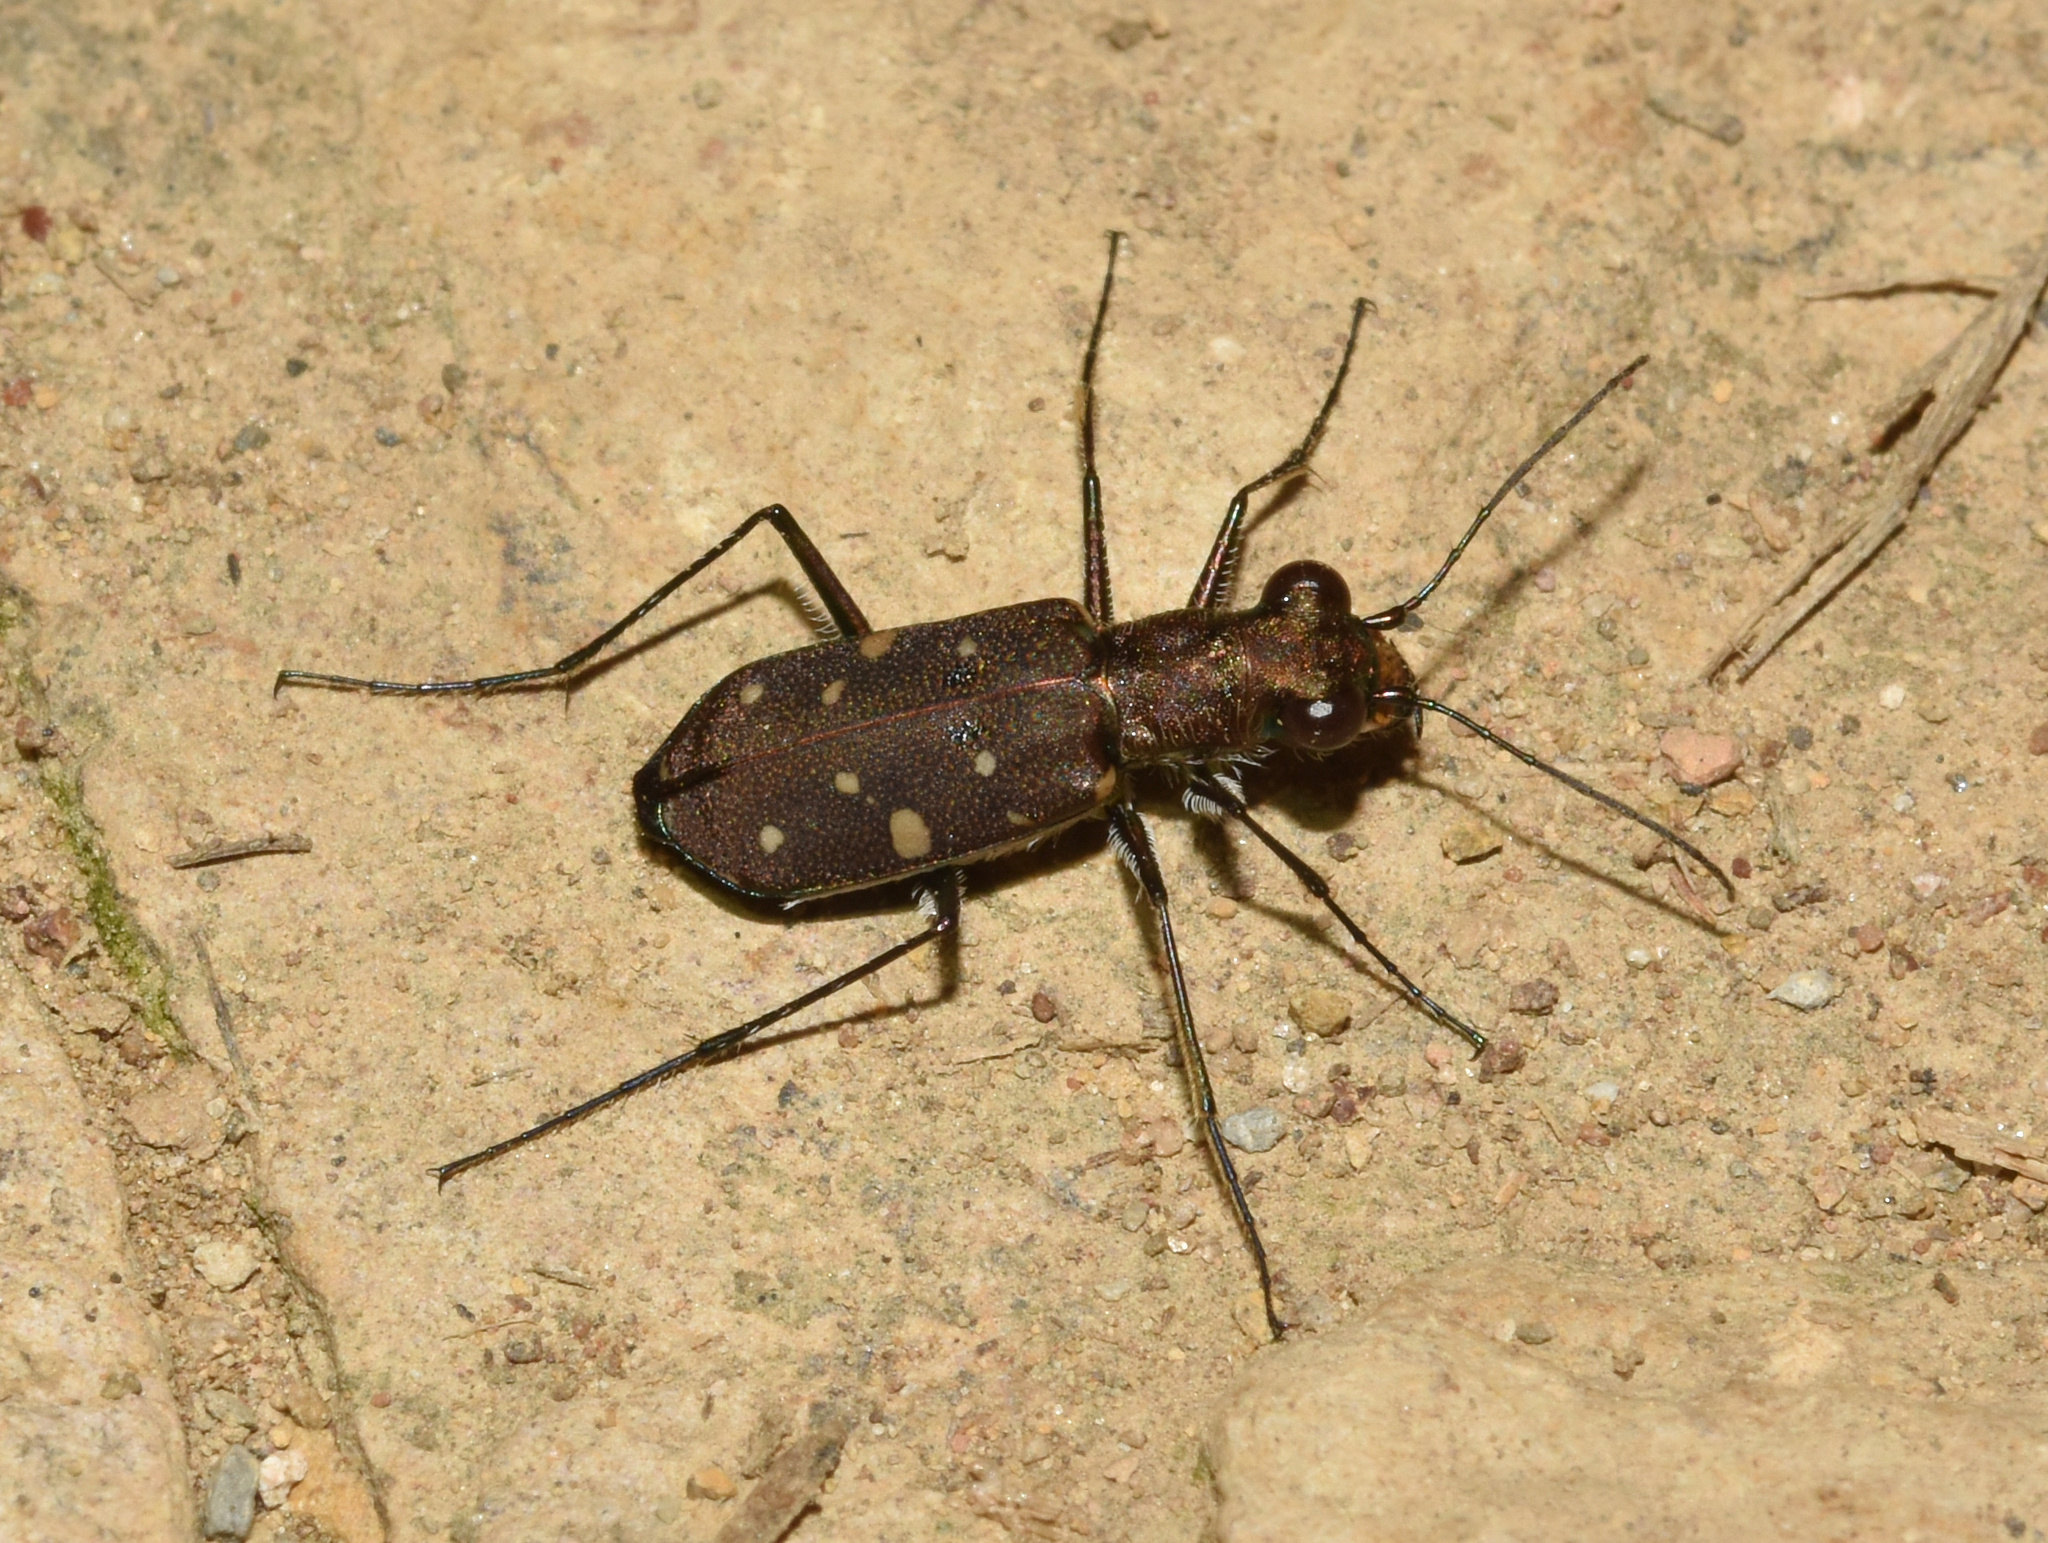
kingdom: Animalia
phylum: Arthropoda
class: Insecta
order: Coleoptera
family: Carabidae
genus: Cylindera
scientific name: Cylindera disjuncta
